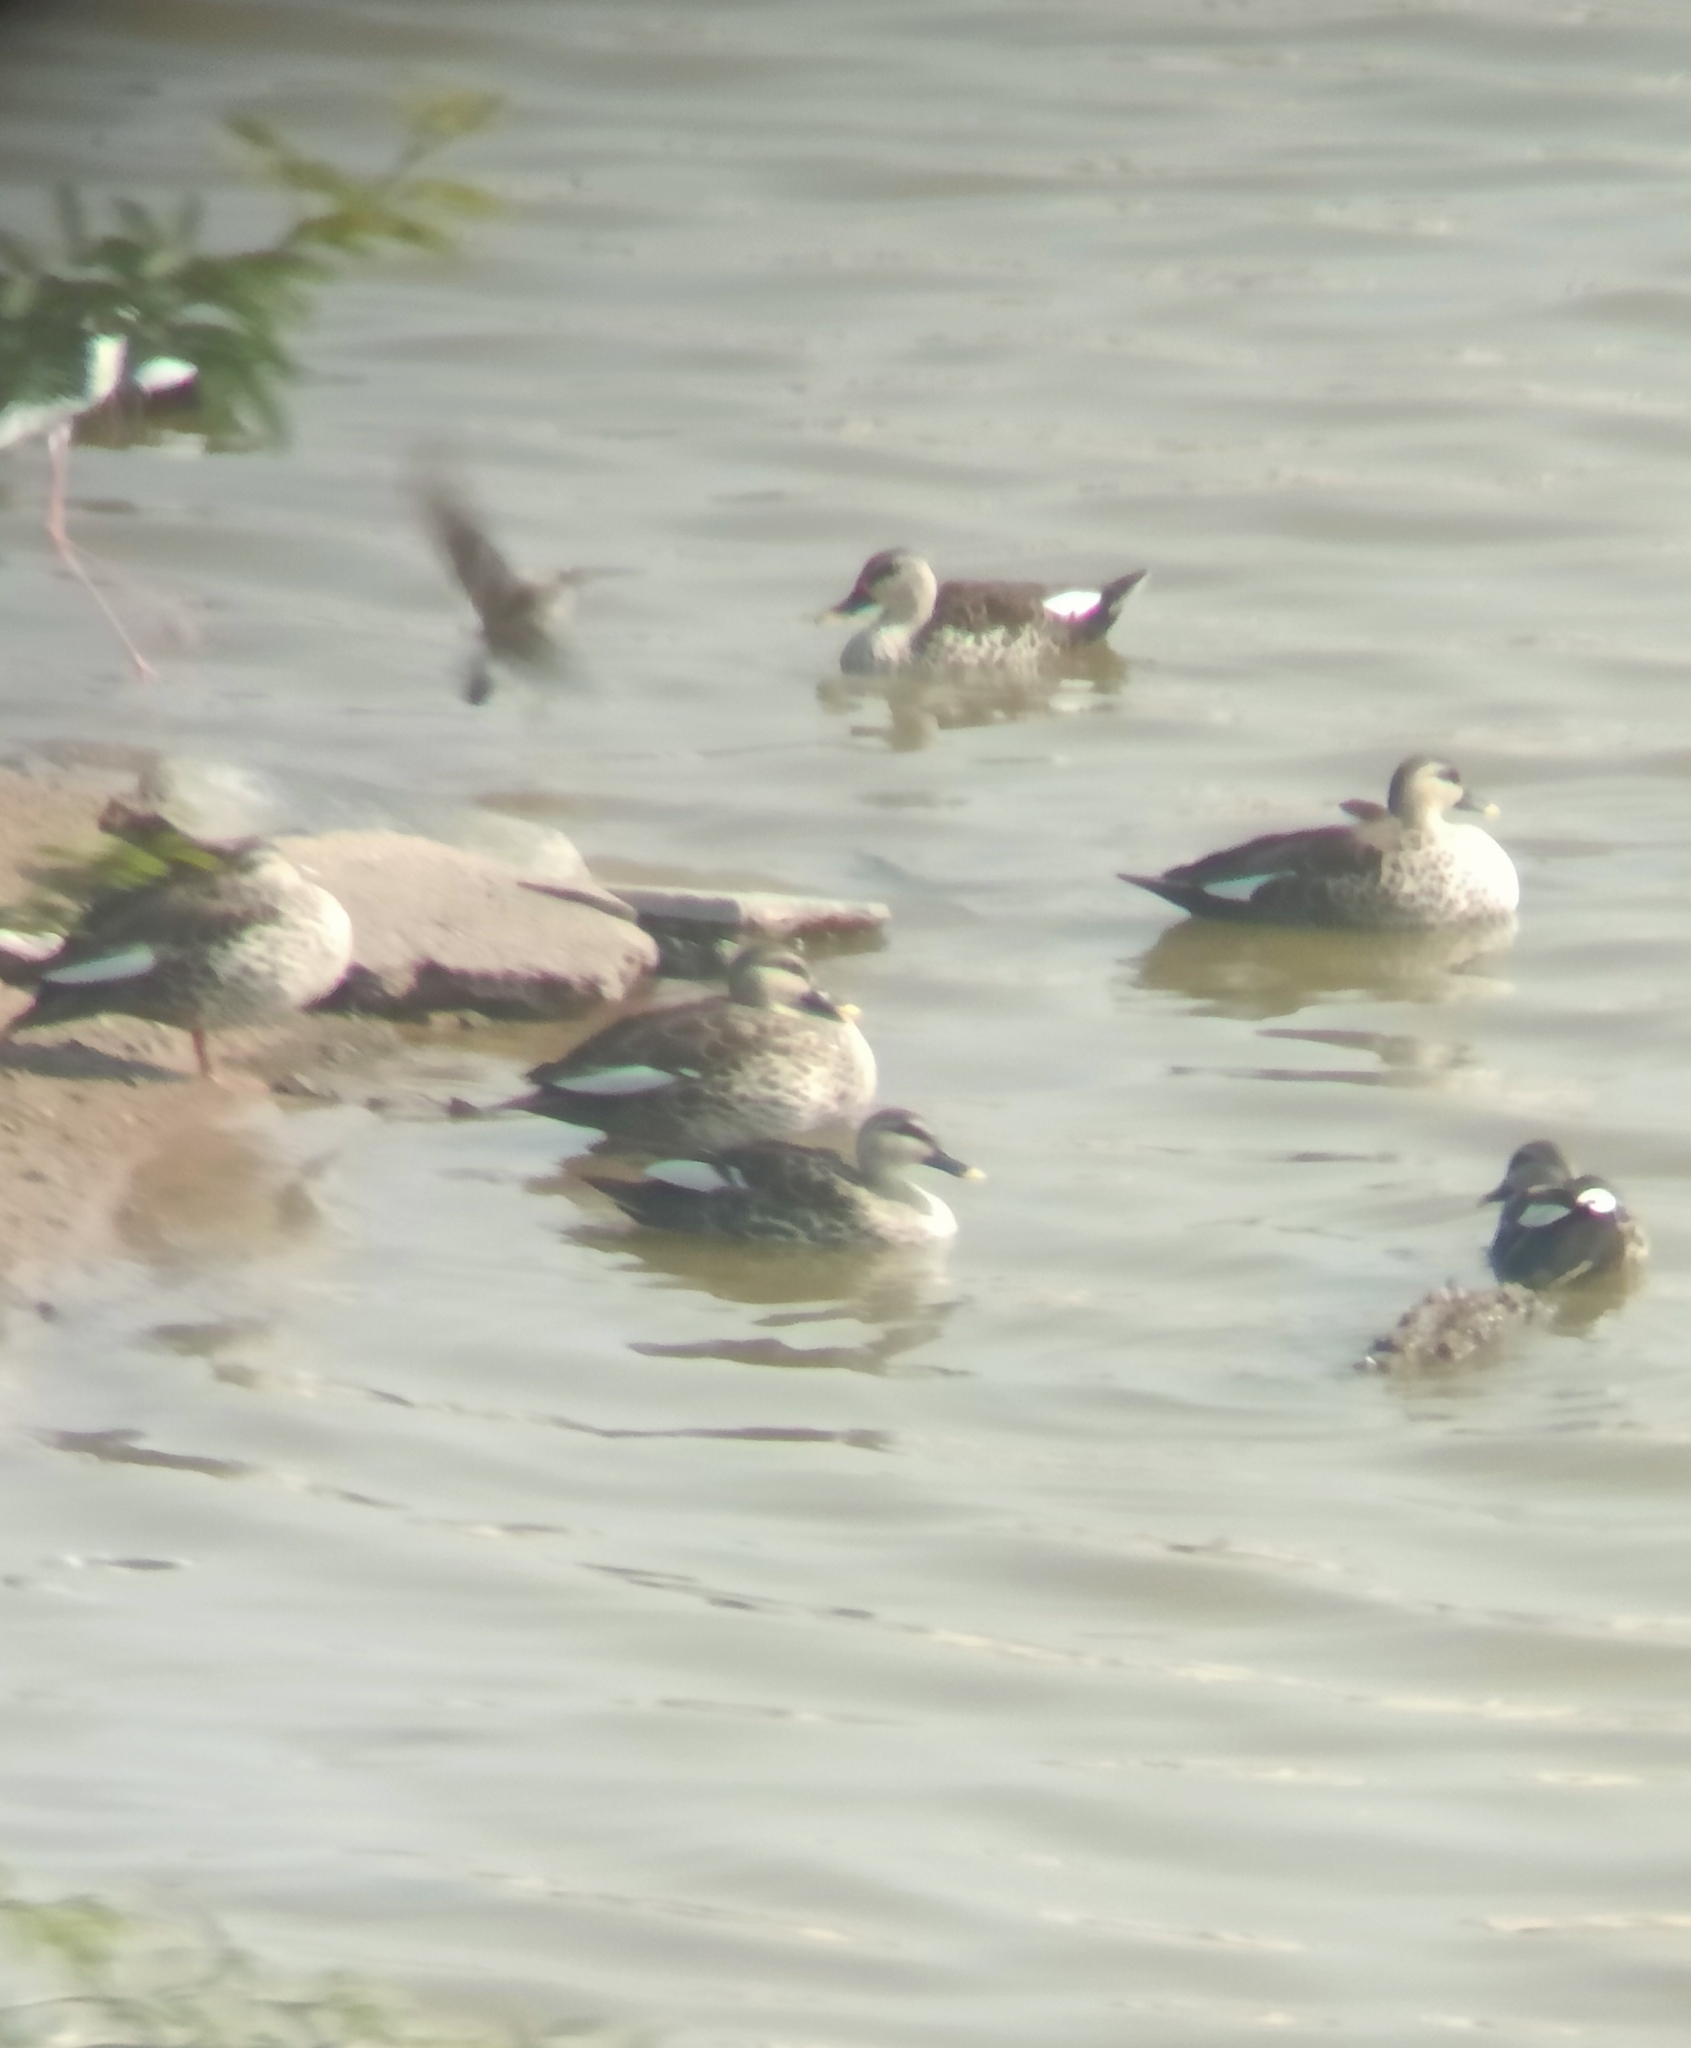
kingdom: Animalia
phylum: Chordata
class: Aves
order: Anseriformes
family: Anatidae
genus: Anas
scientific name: Anas poecilorhyncha
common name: Indian spot-billed duck
